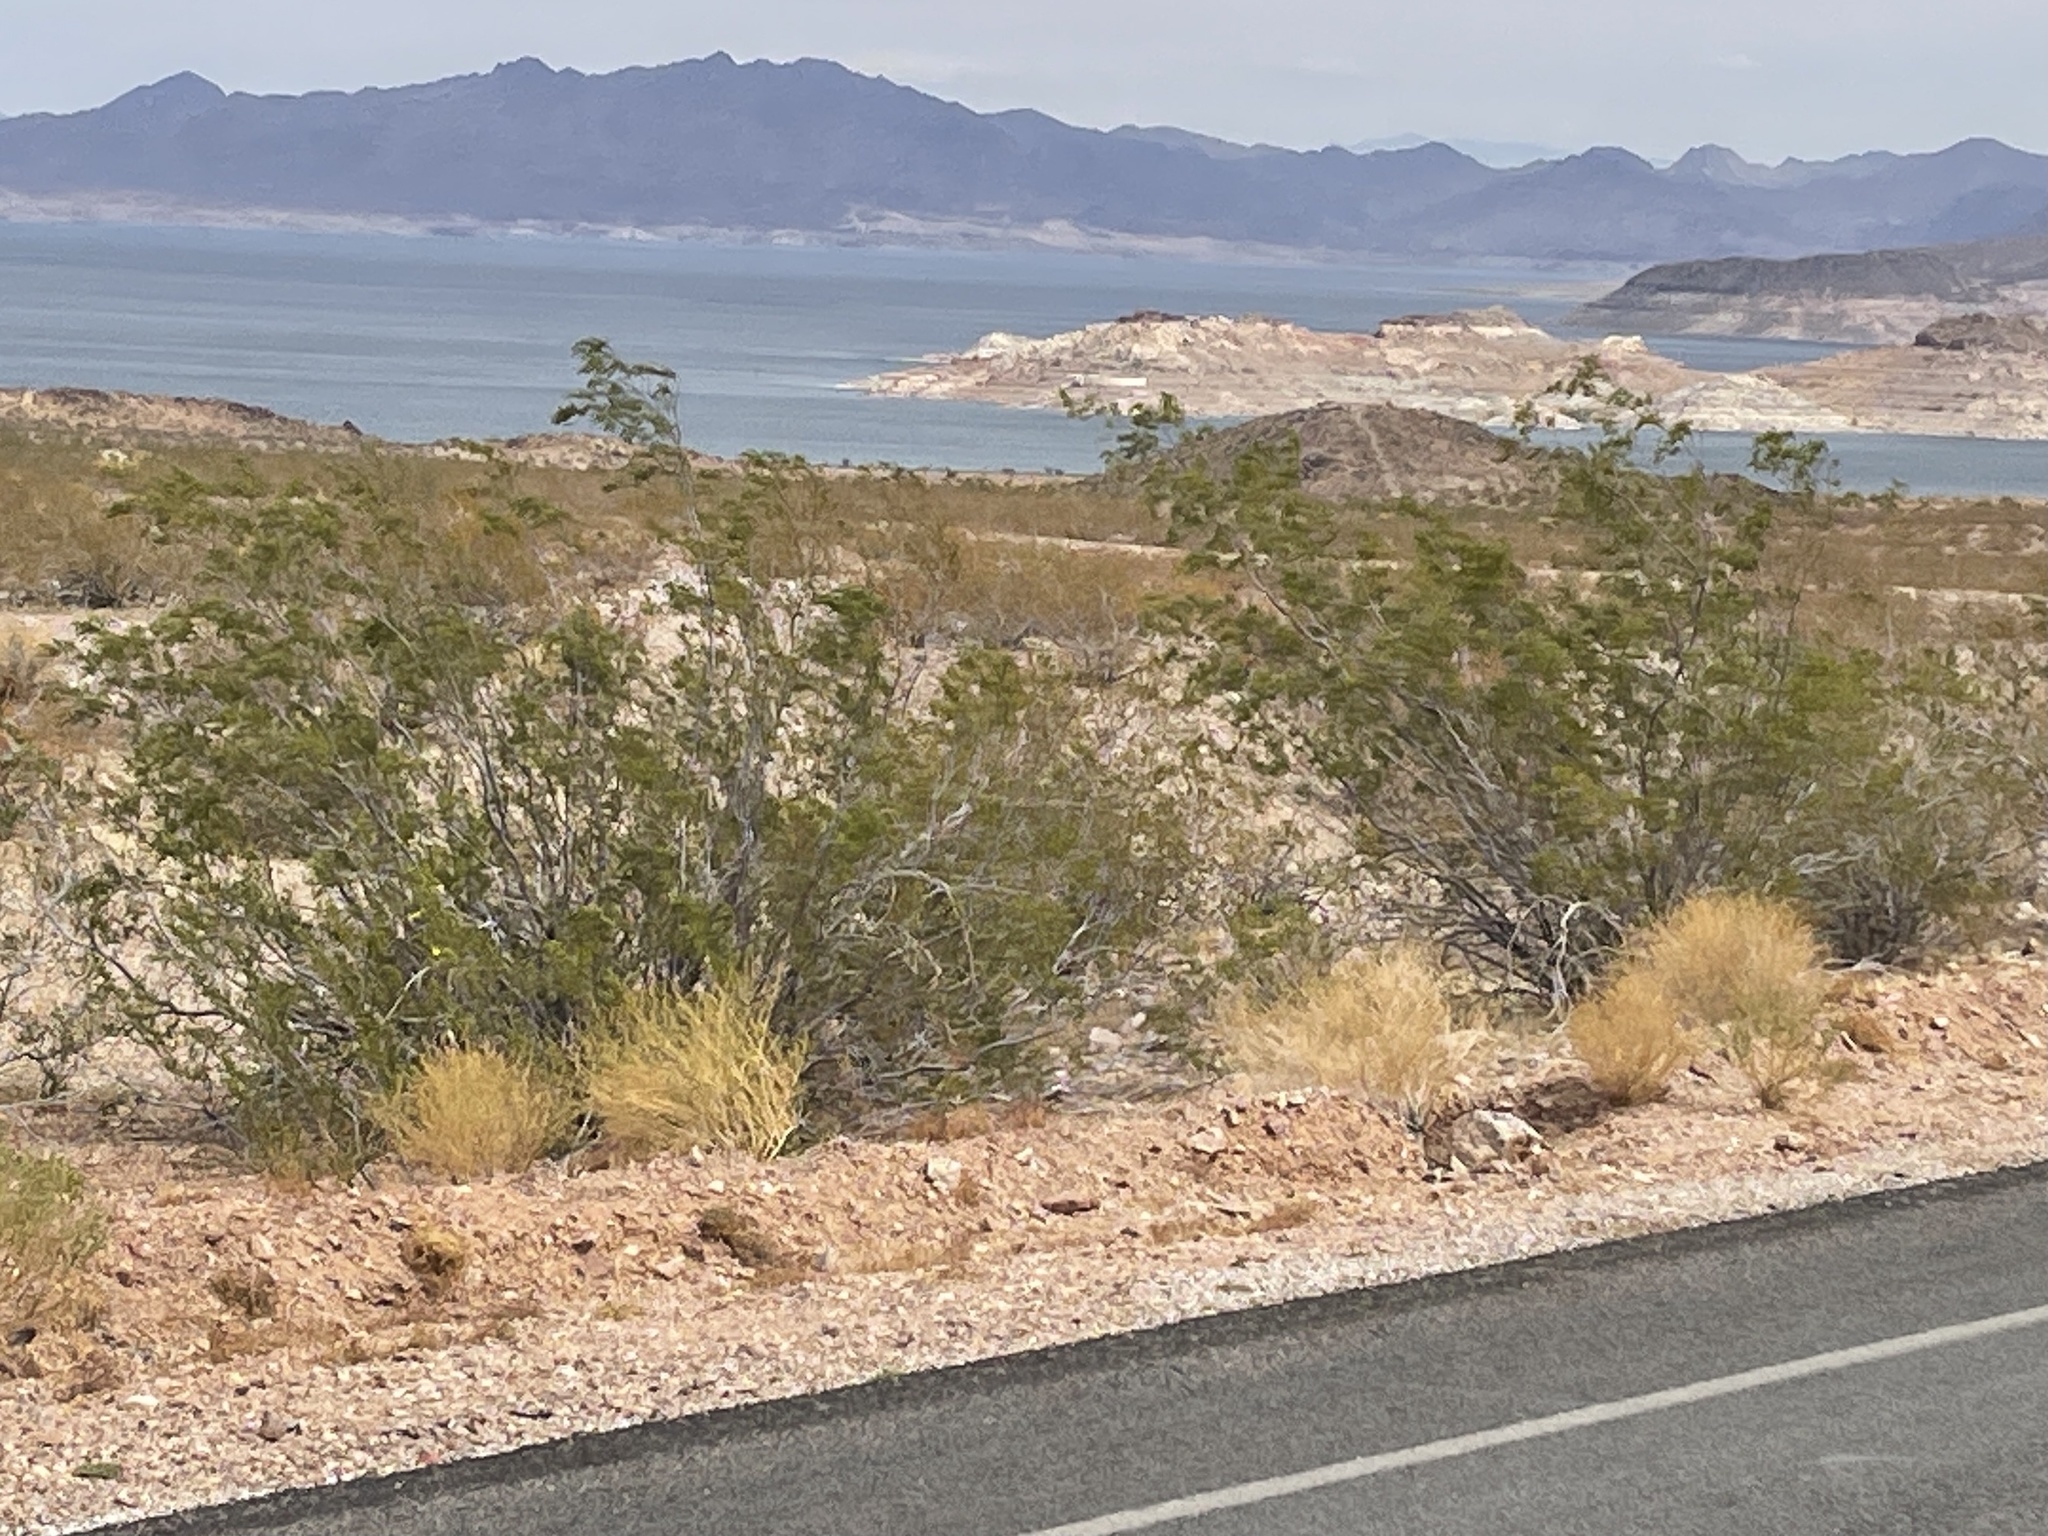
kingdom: Plantae
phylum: Tracheophyta
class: Magnoliopsida
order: Zygophyllales
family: Zygophyllaceae
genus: Larrea
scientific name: Larrea tridentata
